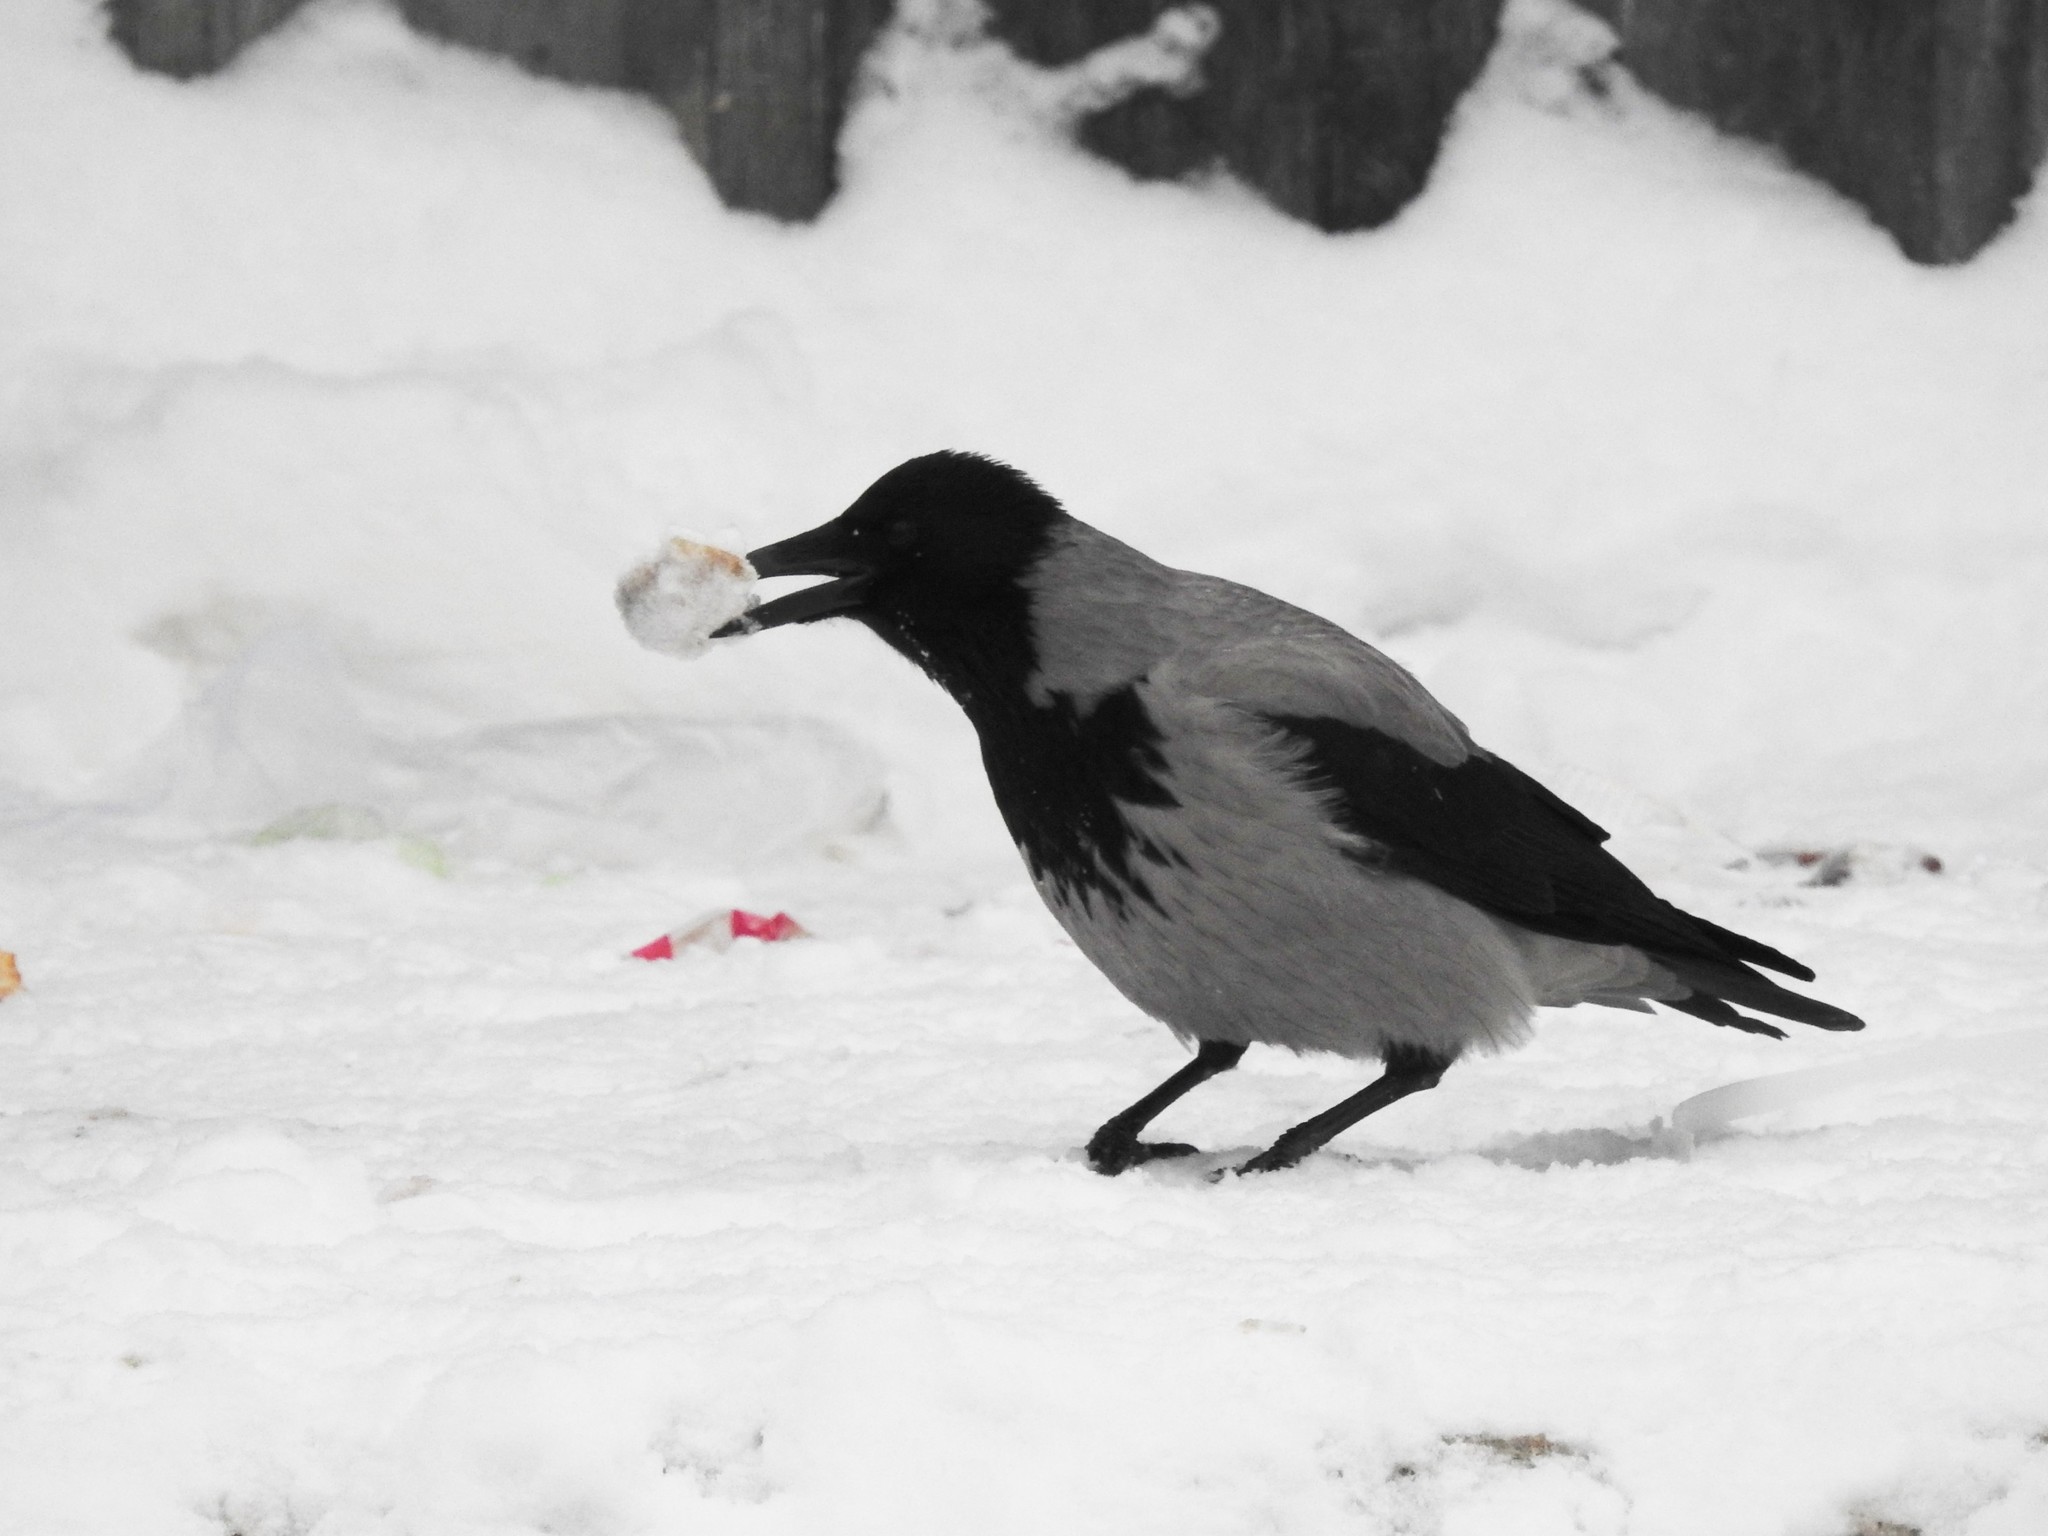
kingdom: Animalia
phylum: Chordata
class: Aves
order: Passeriformes
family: Corvidae
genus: Corvus
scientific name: Corvus cornix
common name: Hooded crow
